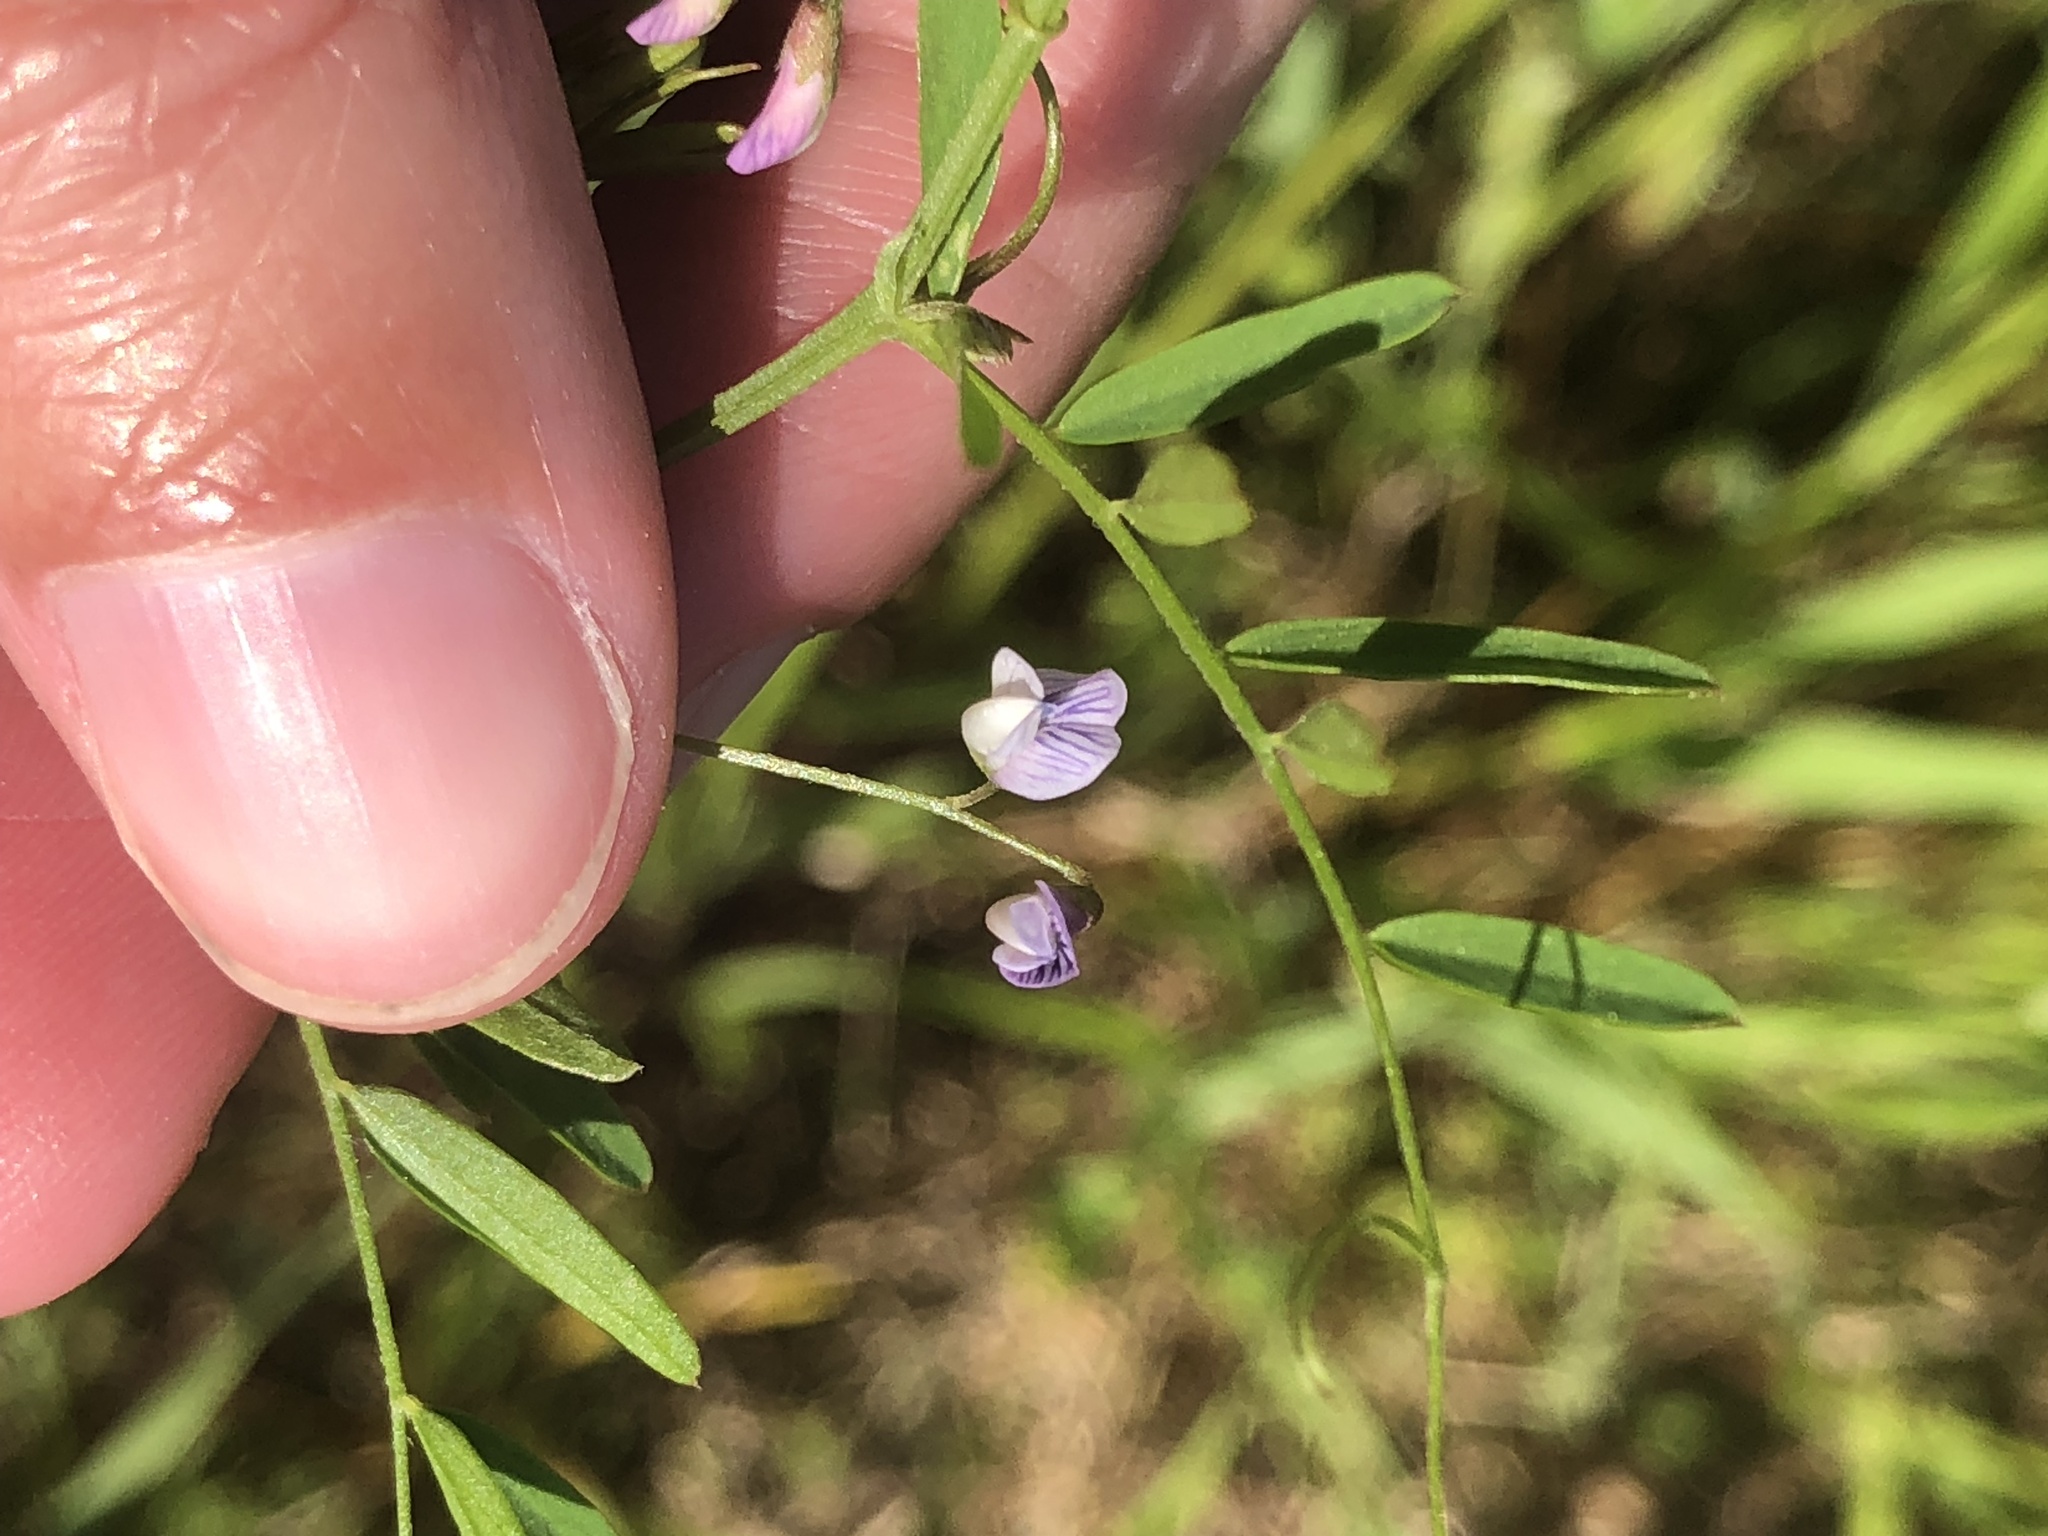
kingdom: Plantae
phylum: Tracheophyta
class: Magnoliopsida
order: Fabales
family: Fabaceae
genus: Vicia
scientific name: Vicia tetrasperma
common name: Smooth tare
